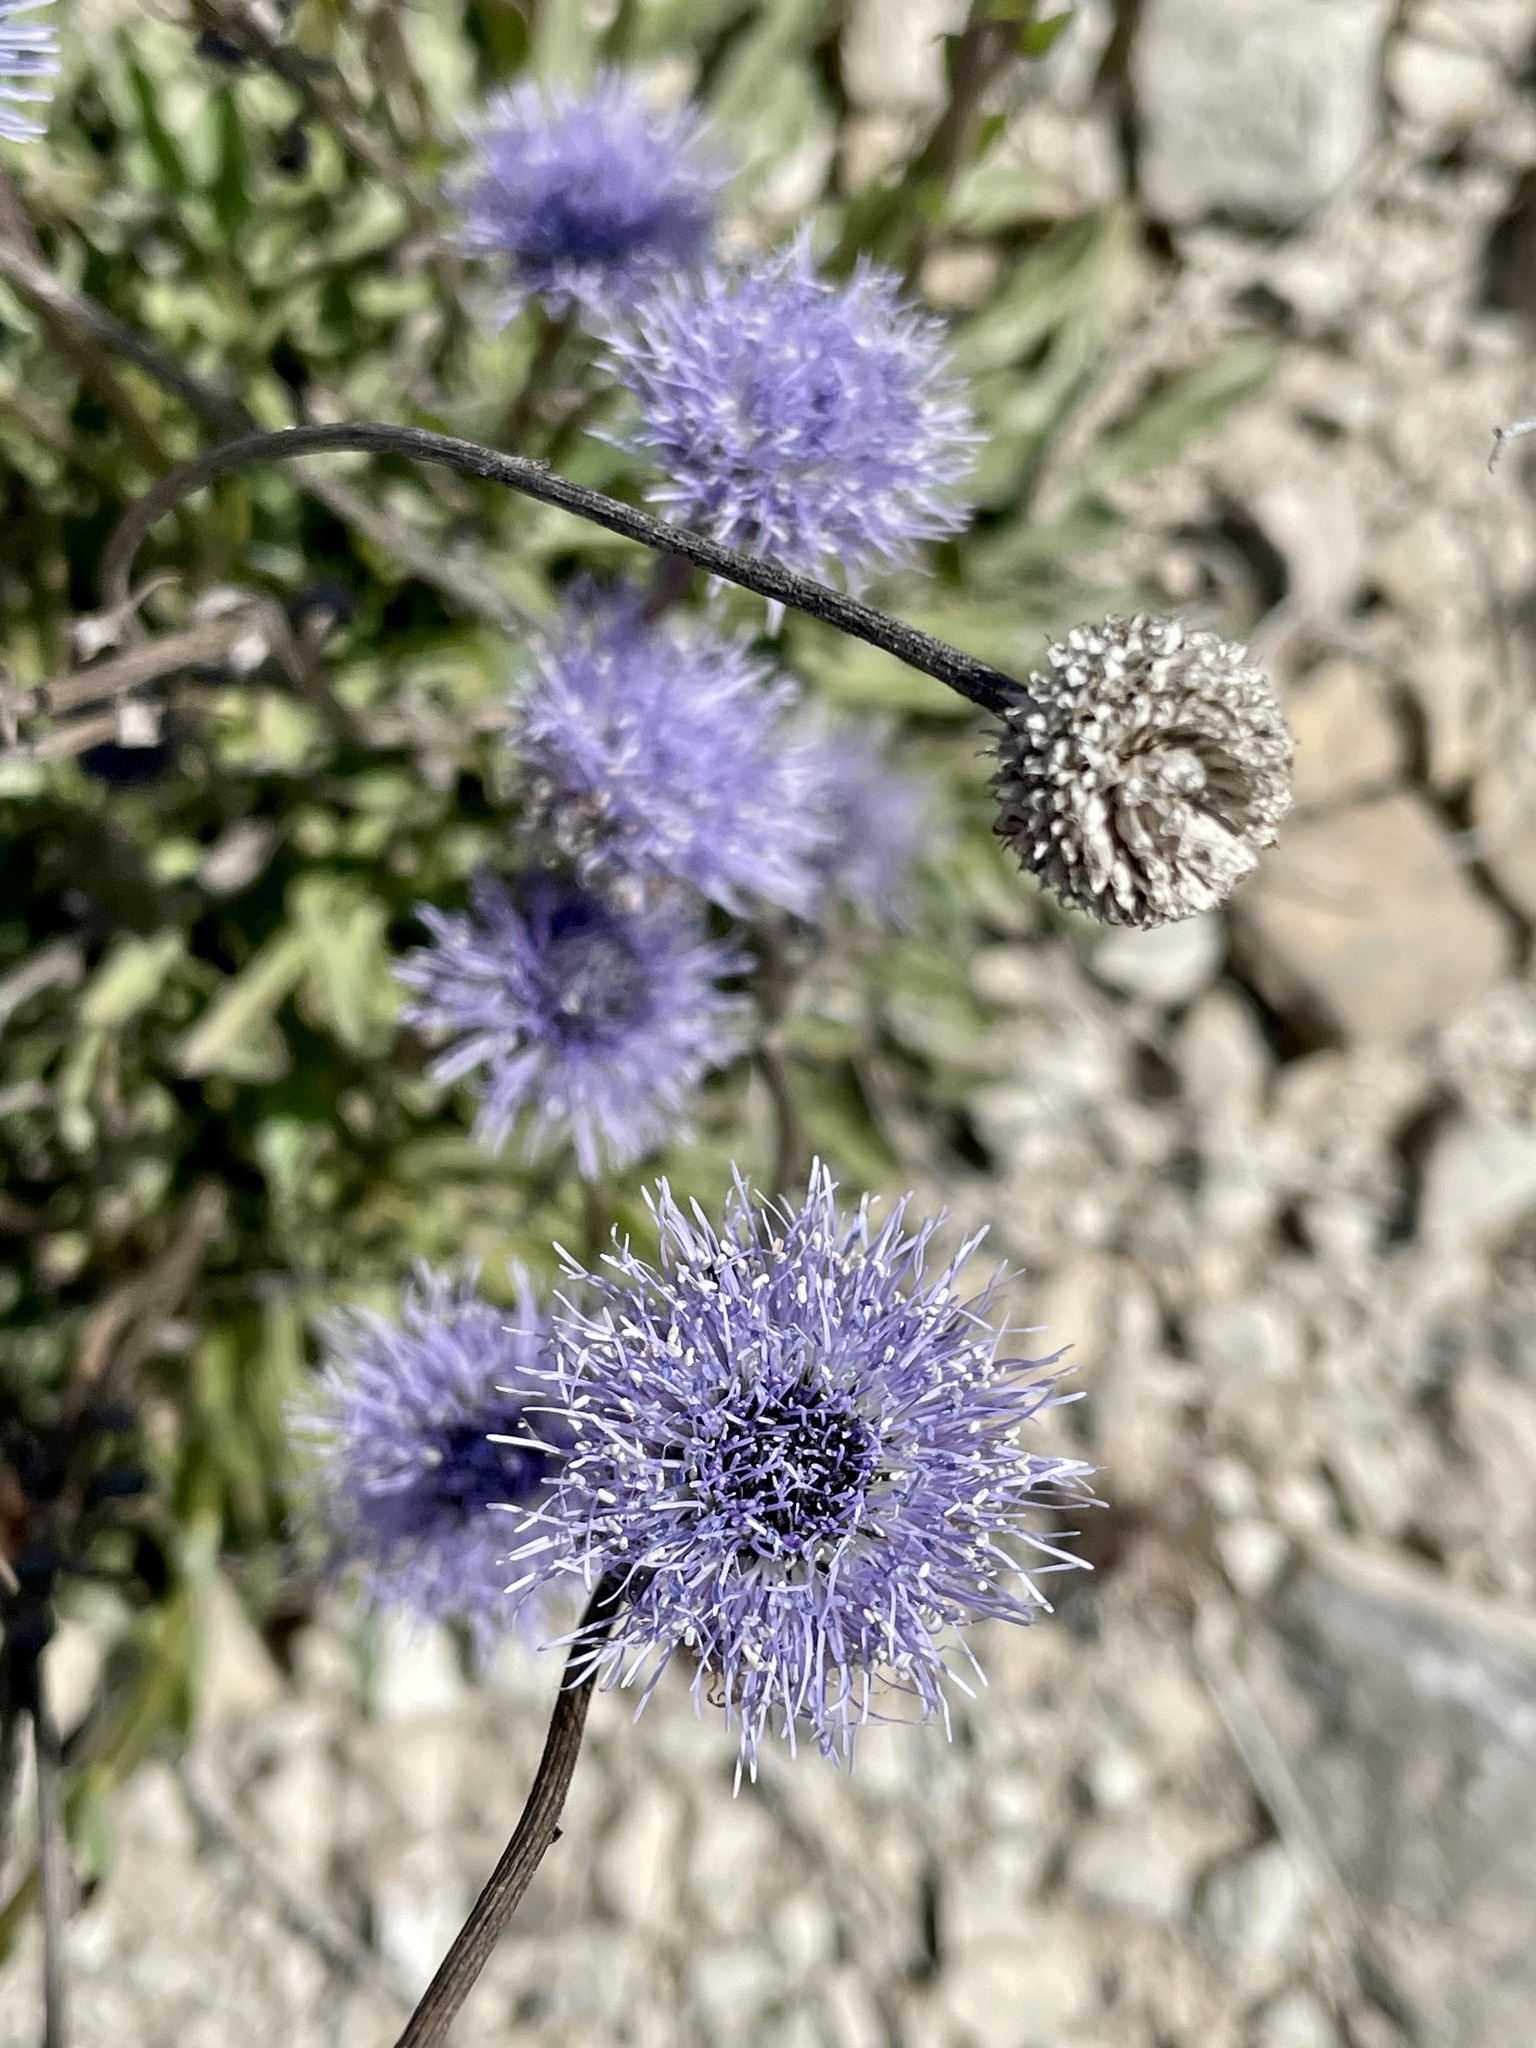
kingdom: Plantae
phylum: Tracheophyta
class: Magnoliopsida
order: Lamiales
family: Plantaginaceae
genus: Globularia
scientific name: Globularia vulgaris
